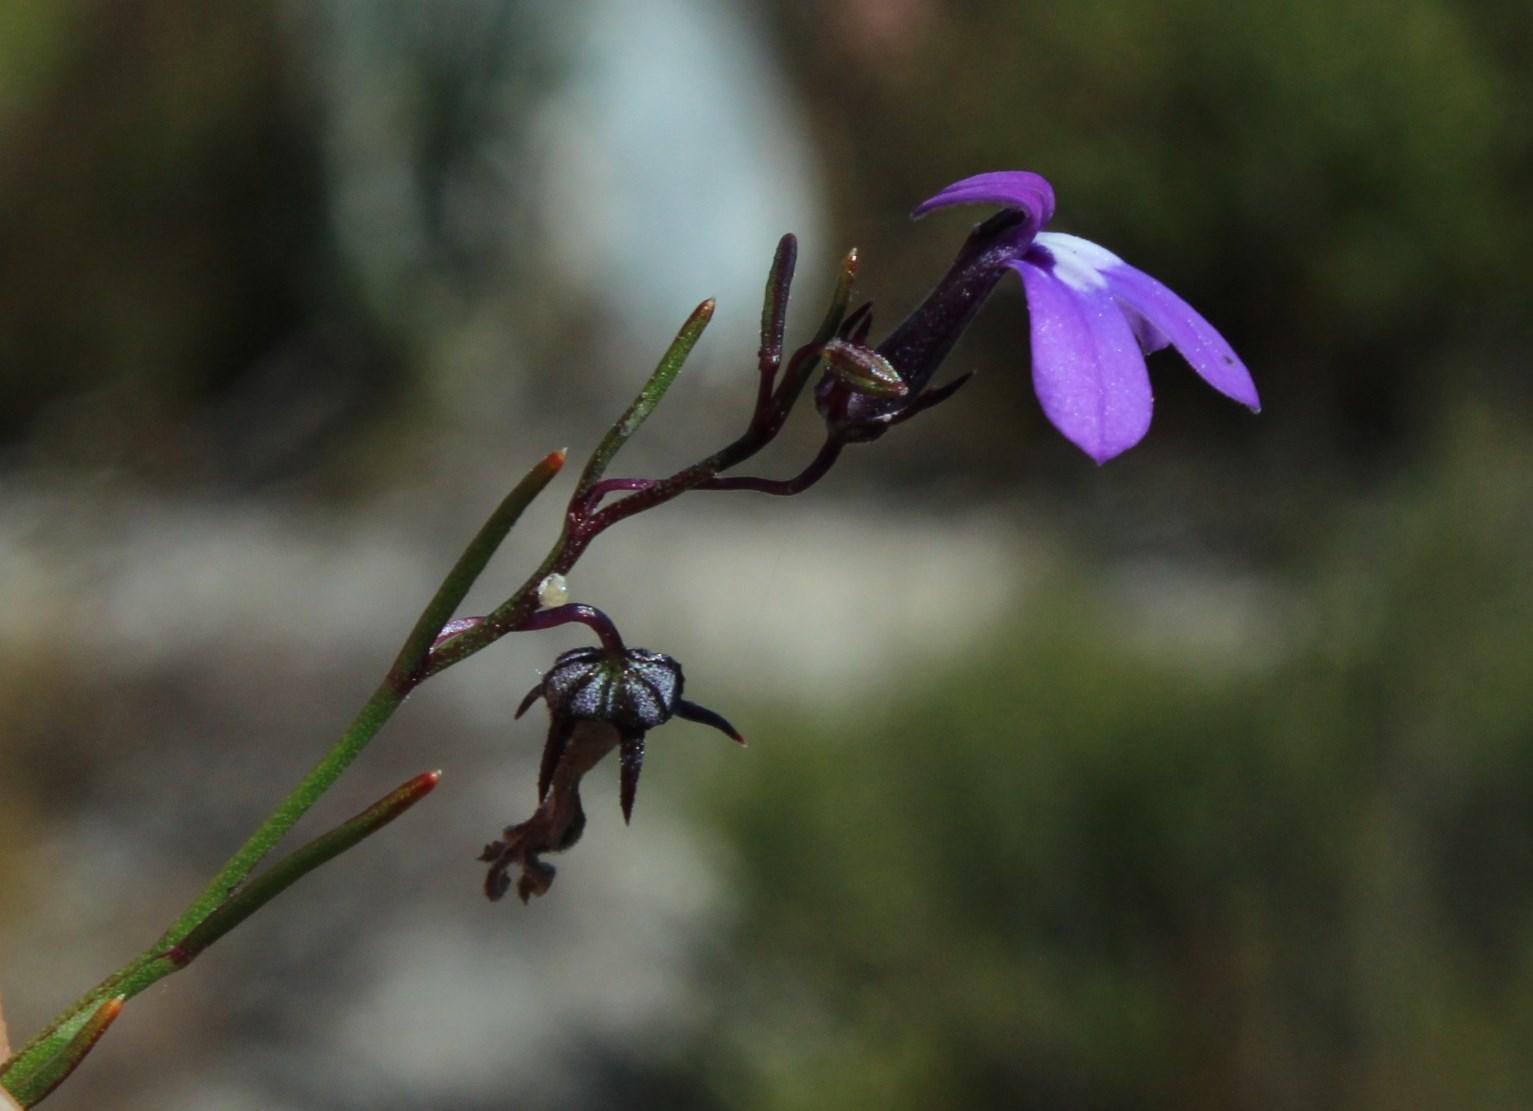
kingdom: Plantae
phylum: Tracheophyta
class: Magnoliopsida
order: Asterales
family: Campanulaceae
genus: Lobelia
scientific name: Lobelia setacea
